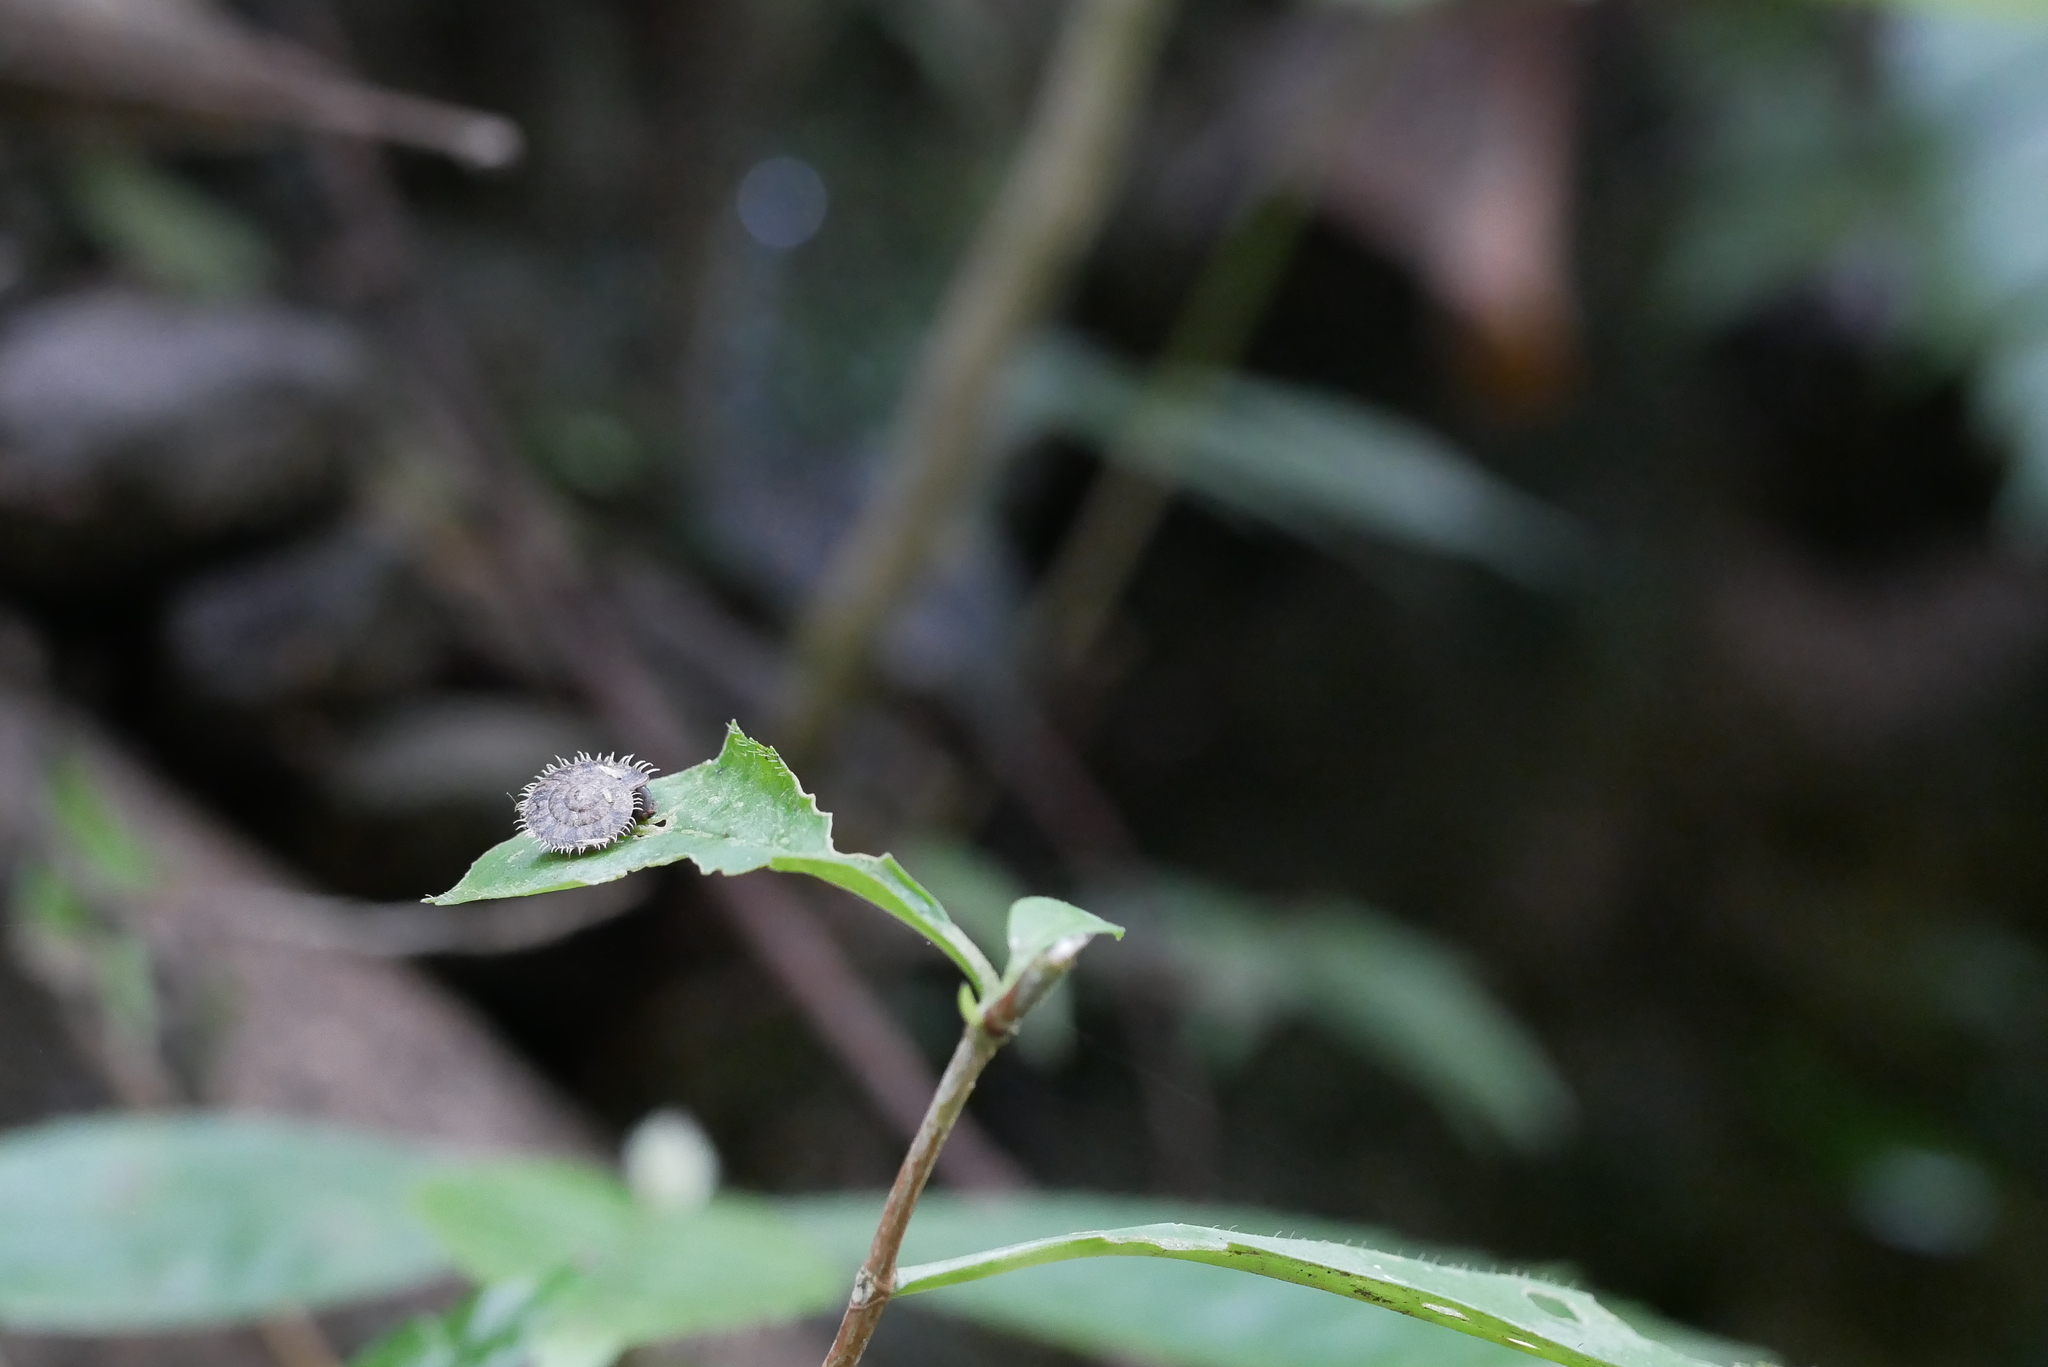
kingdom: Animalia
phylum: Mollusca
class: Gastropoda
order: Stylommatophora
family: Camaenidae
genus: Plectotropis
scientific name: Plectotropis mackensii
